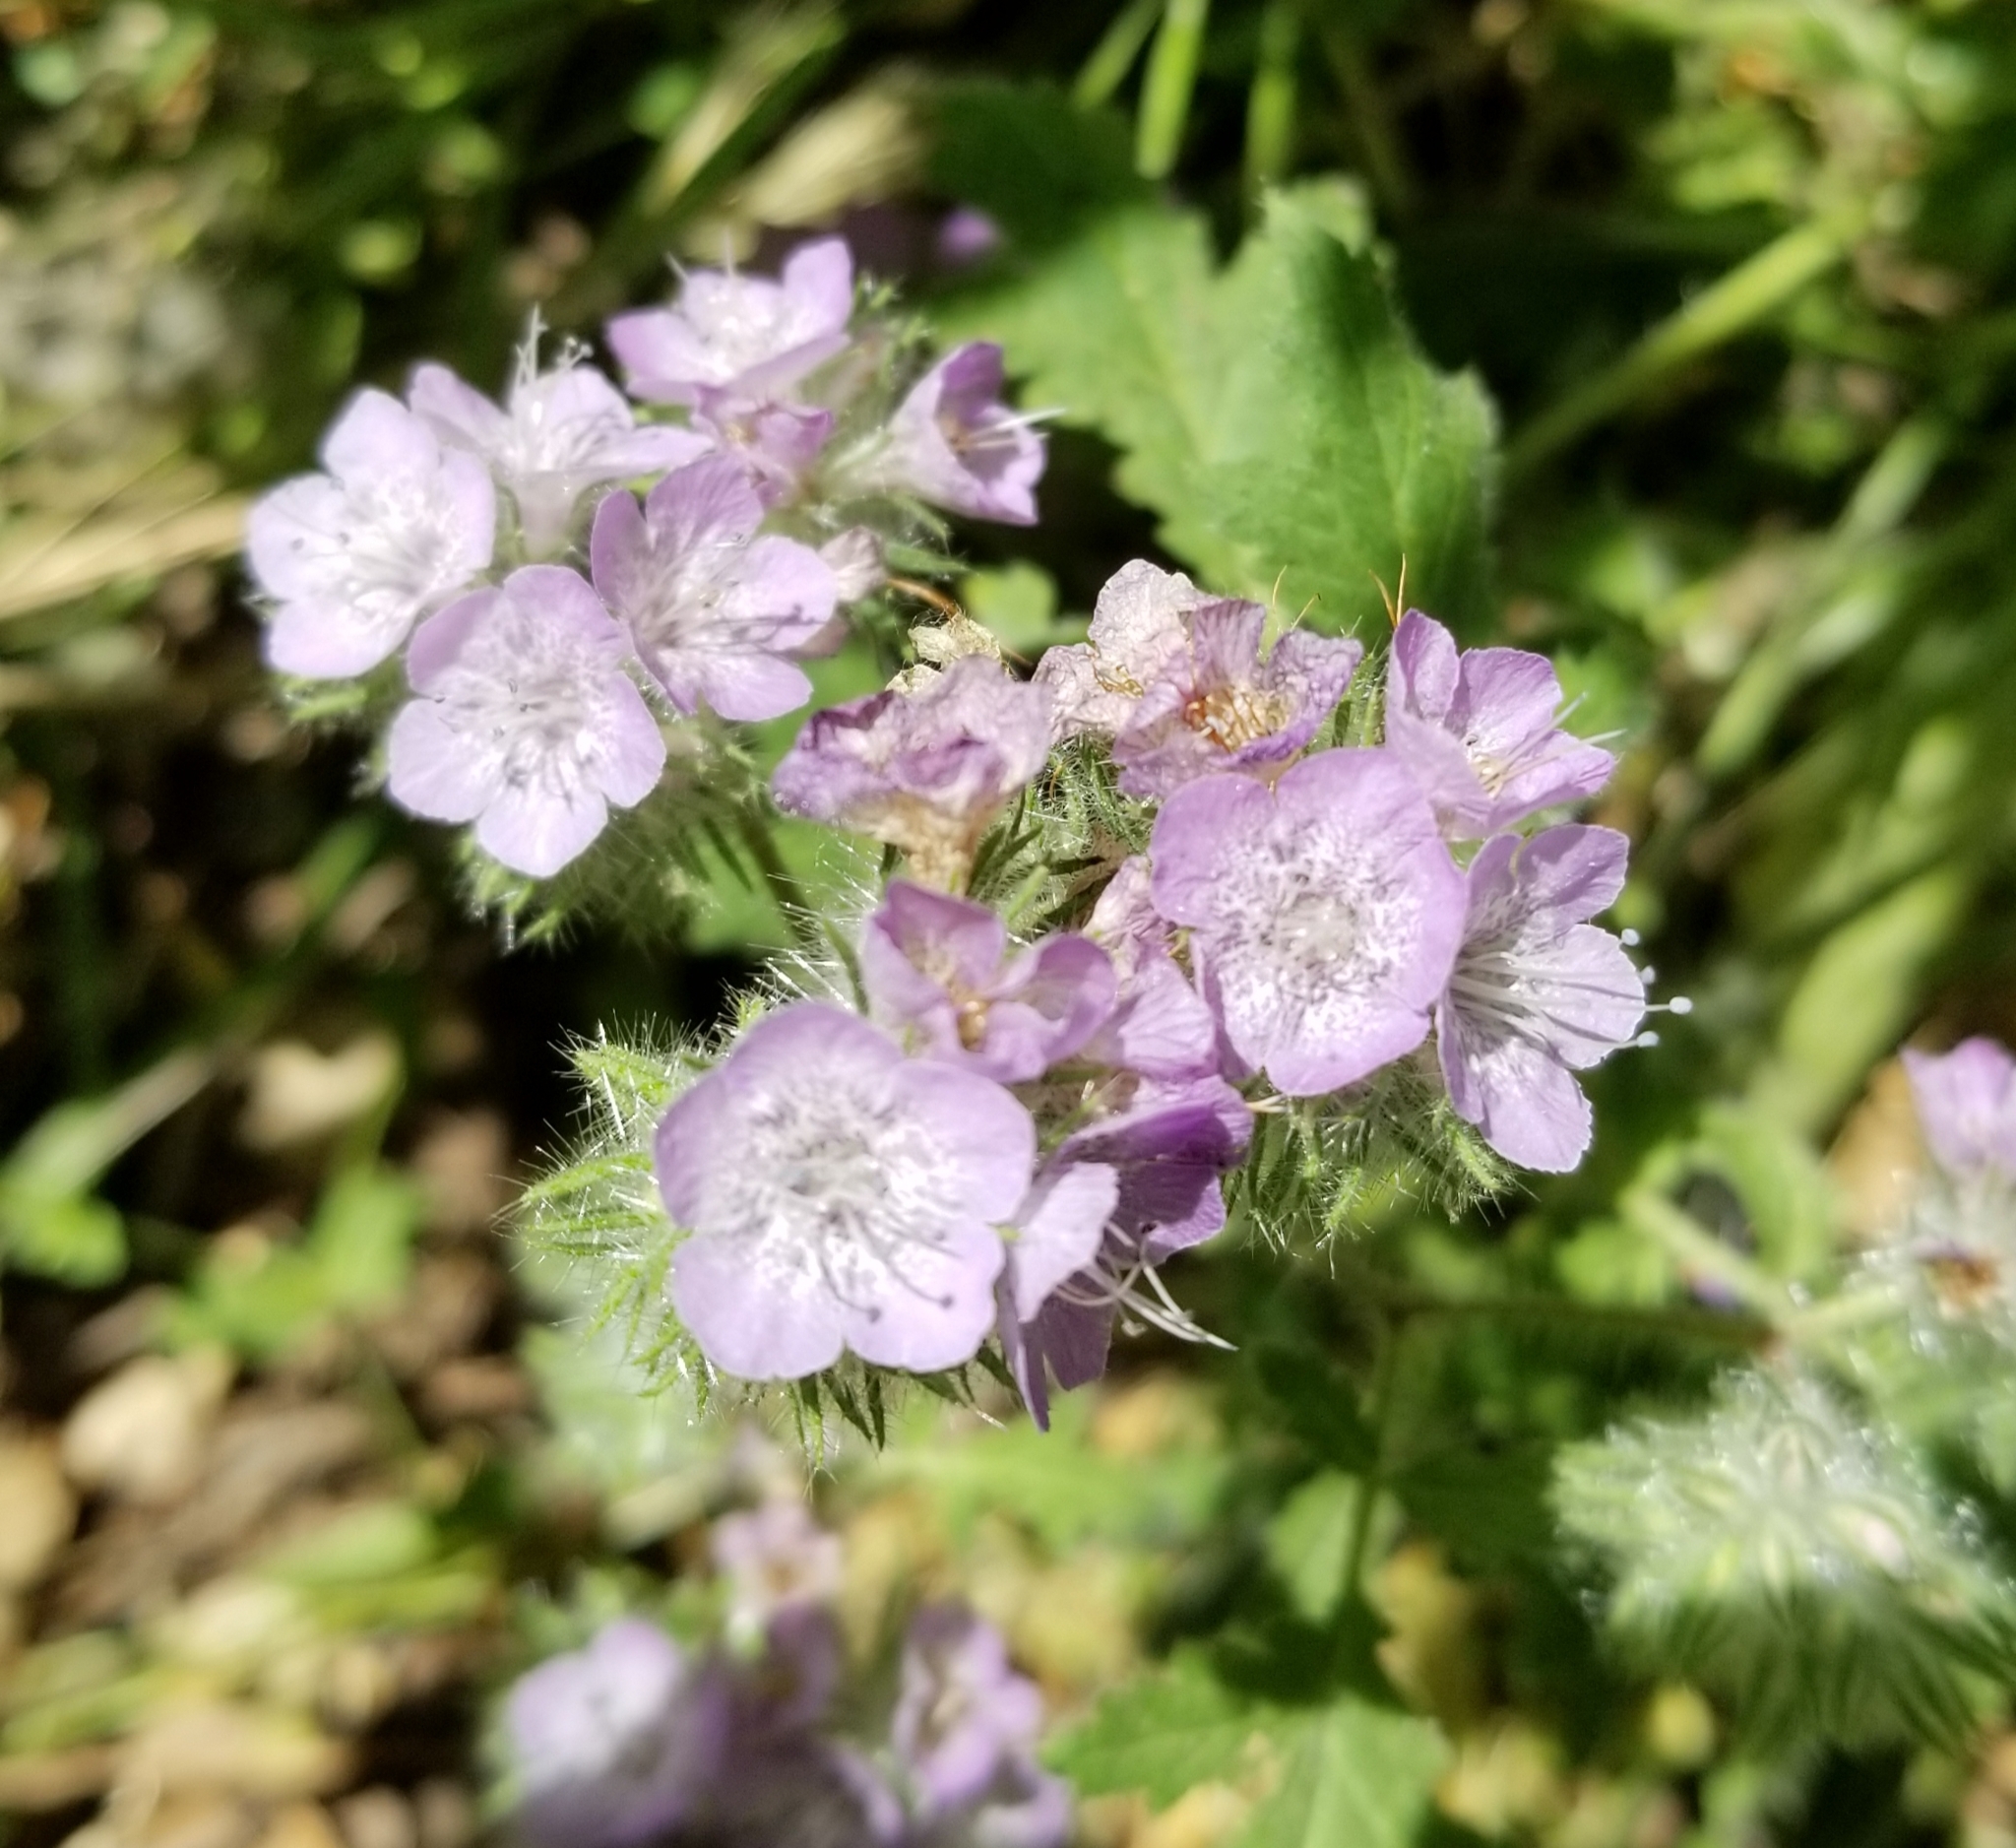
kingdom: Plantae
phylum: Tracheophyta
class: Magnoliopsida
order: Boraginales
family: Hydrophyllaceae
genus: Phacelia
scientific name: Phacelia cicutaria
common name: Caterpillar phacelia
